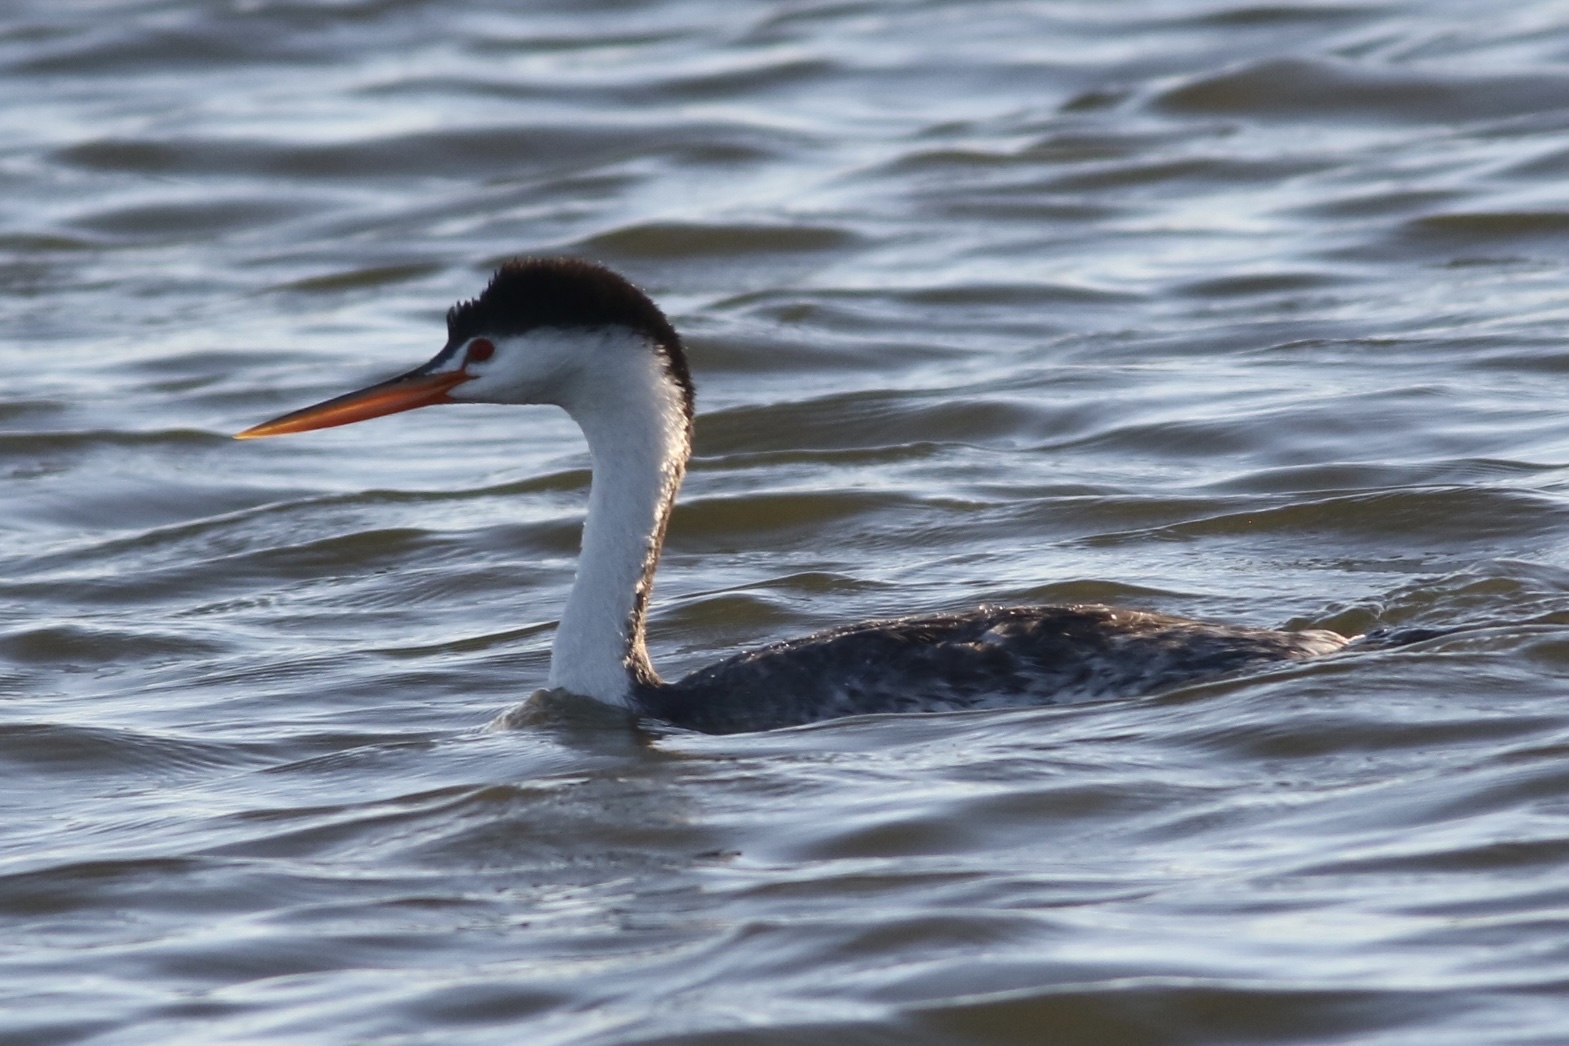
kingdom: Animalia
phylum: Chordata
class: Aves
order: Podicipediformes
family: Podicipedidae
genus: Aechmophorus
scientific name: Aechmophorus clarkii
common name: Clark's grebe
